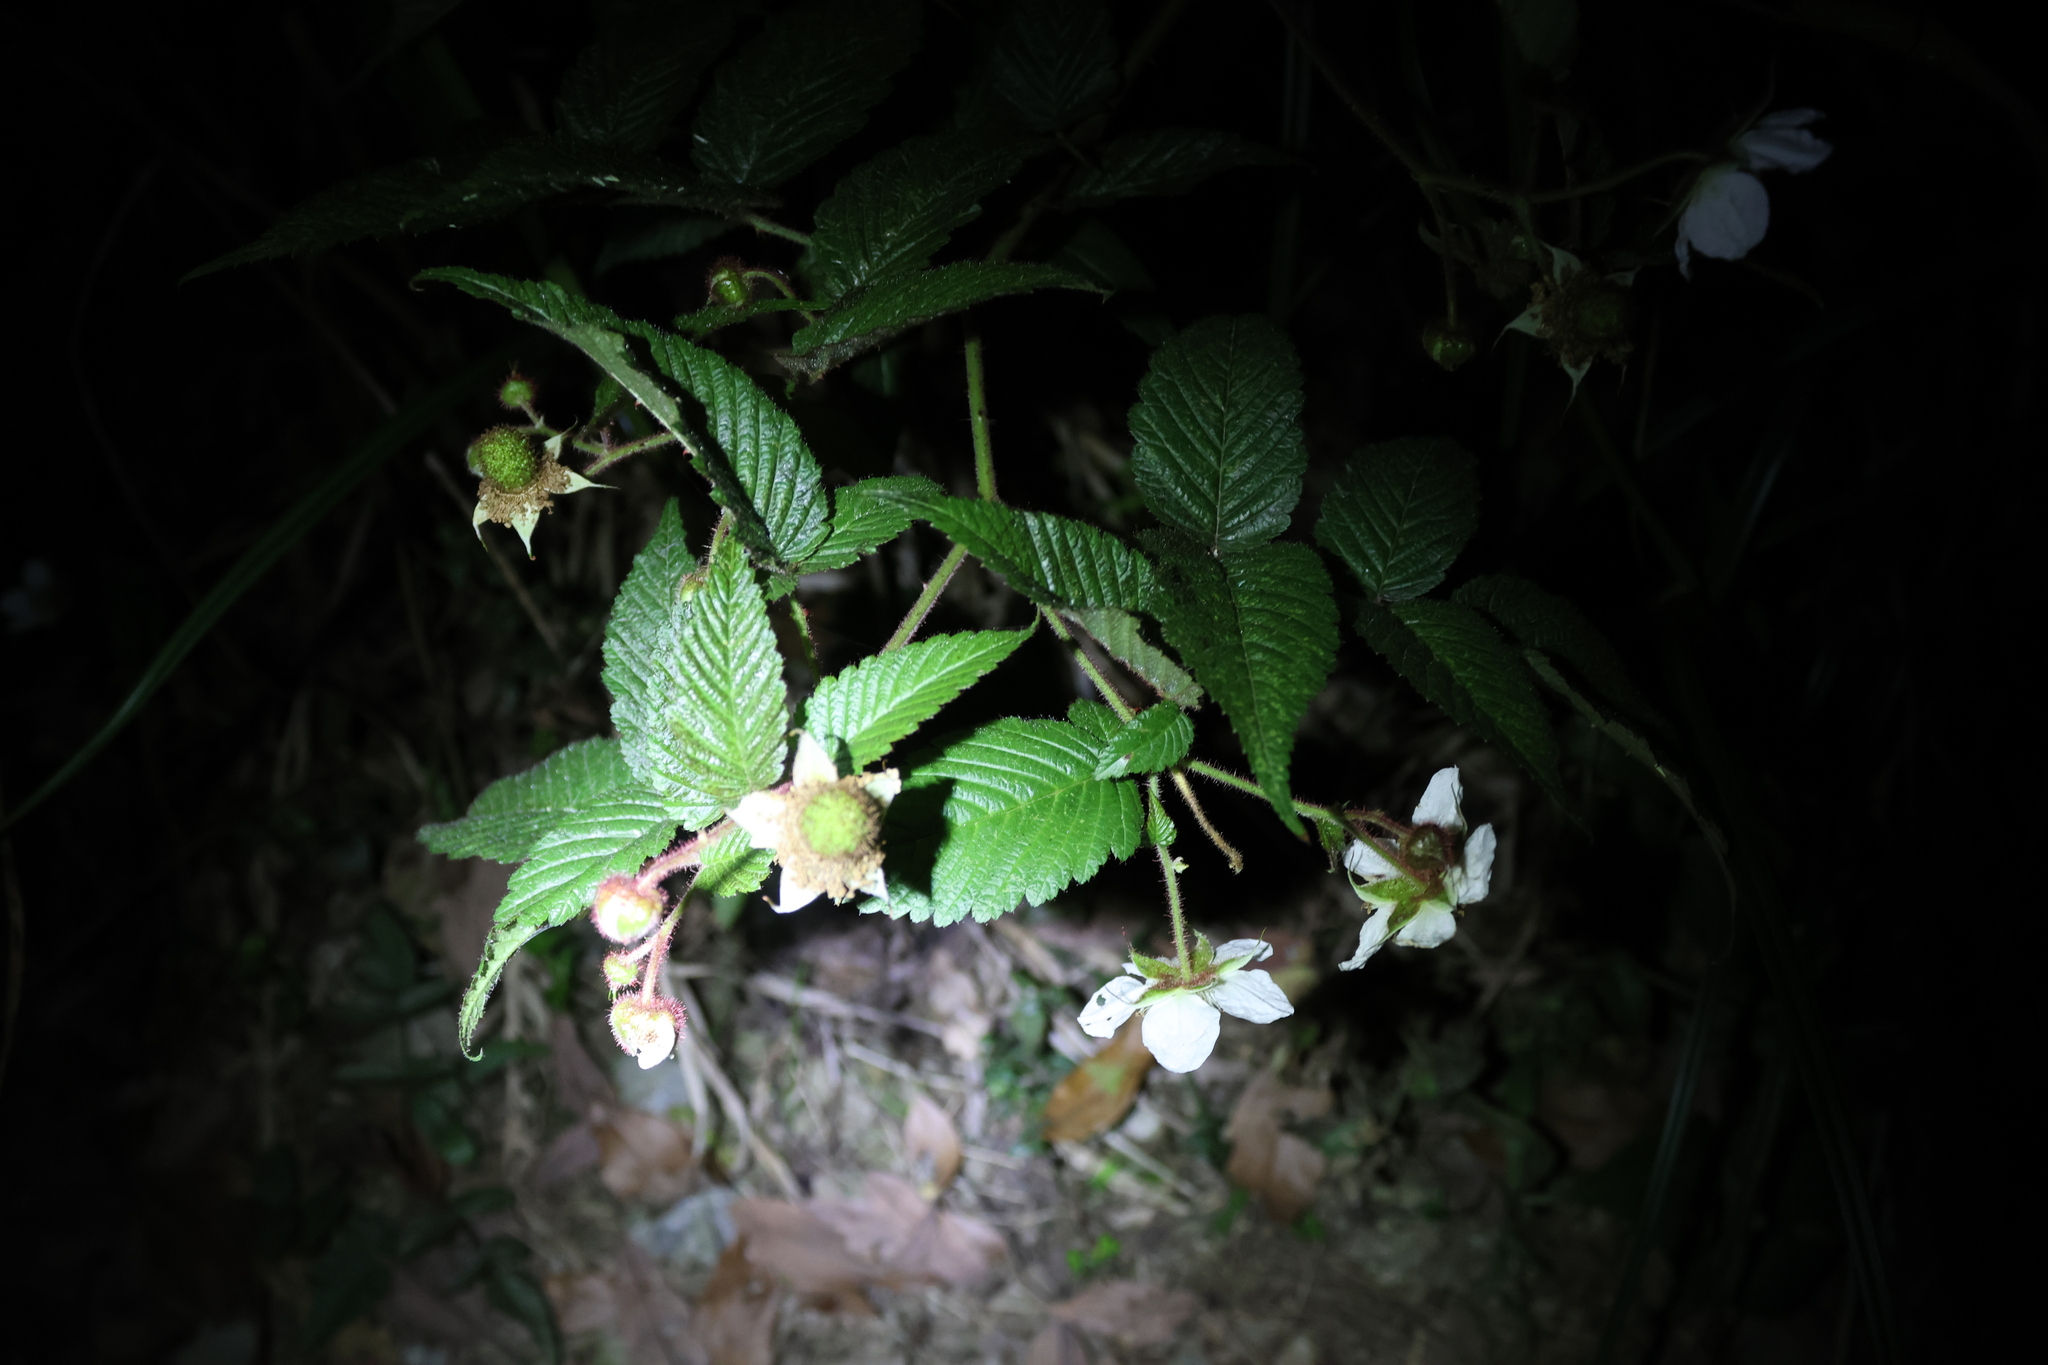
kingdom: Plantae
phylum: Tracheophyta
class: Magnoliopsida
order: Rosales
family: Rosaceae
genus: Rubus
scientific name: Rubus croceacanthus
